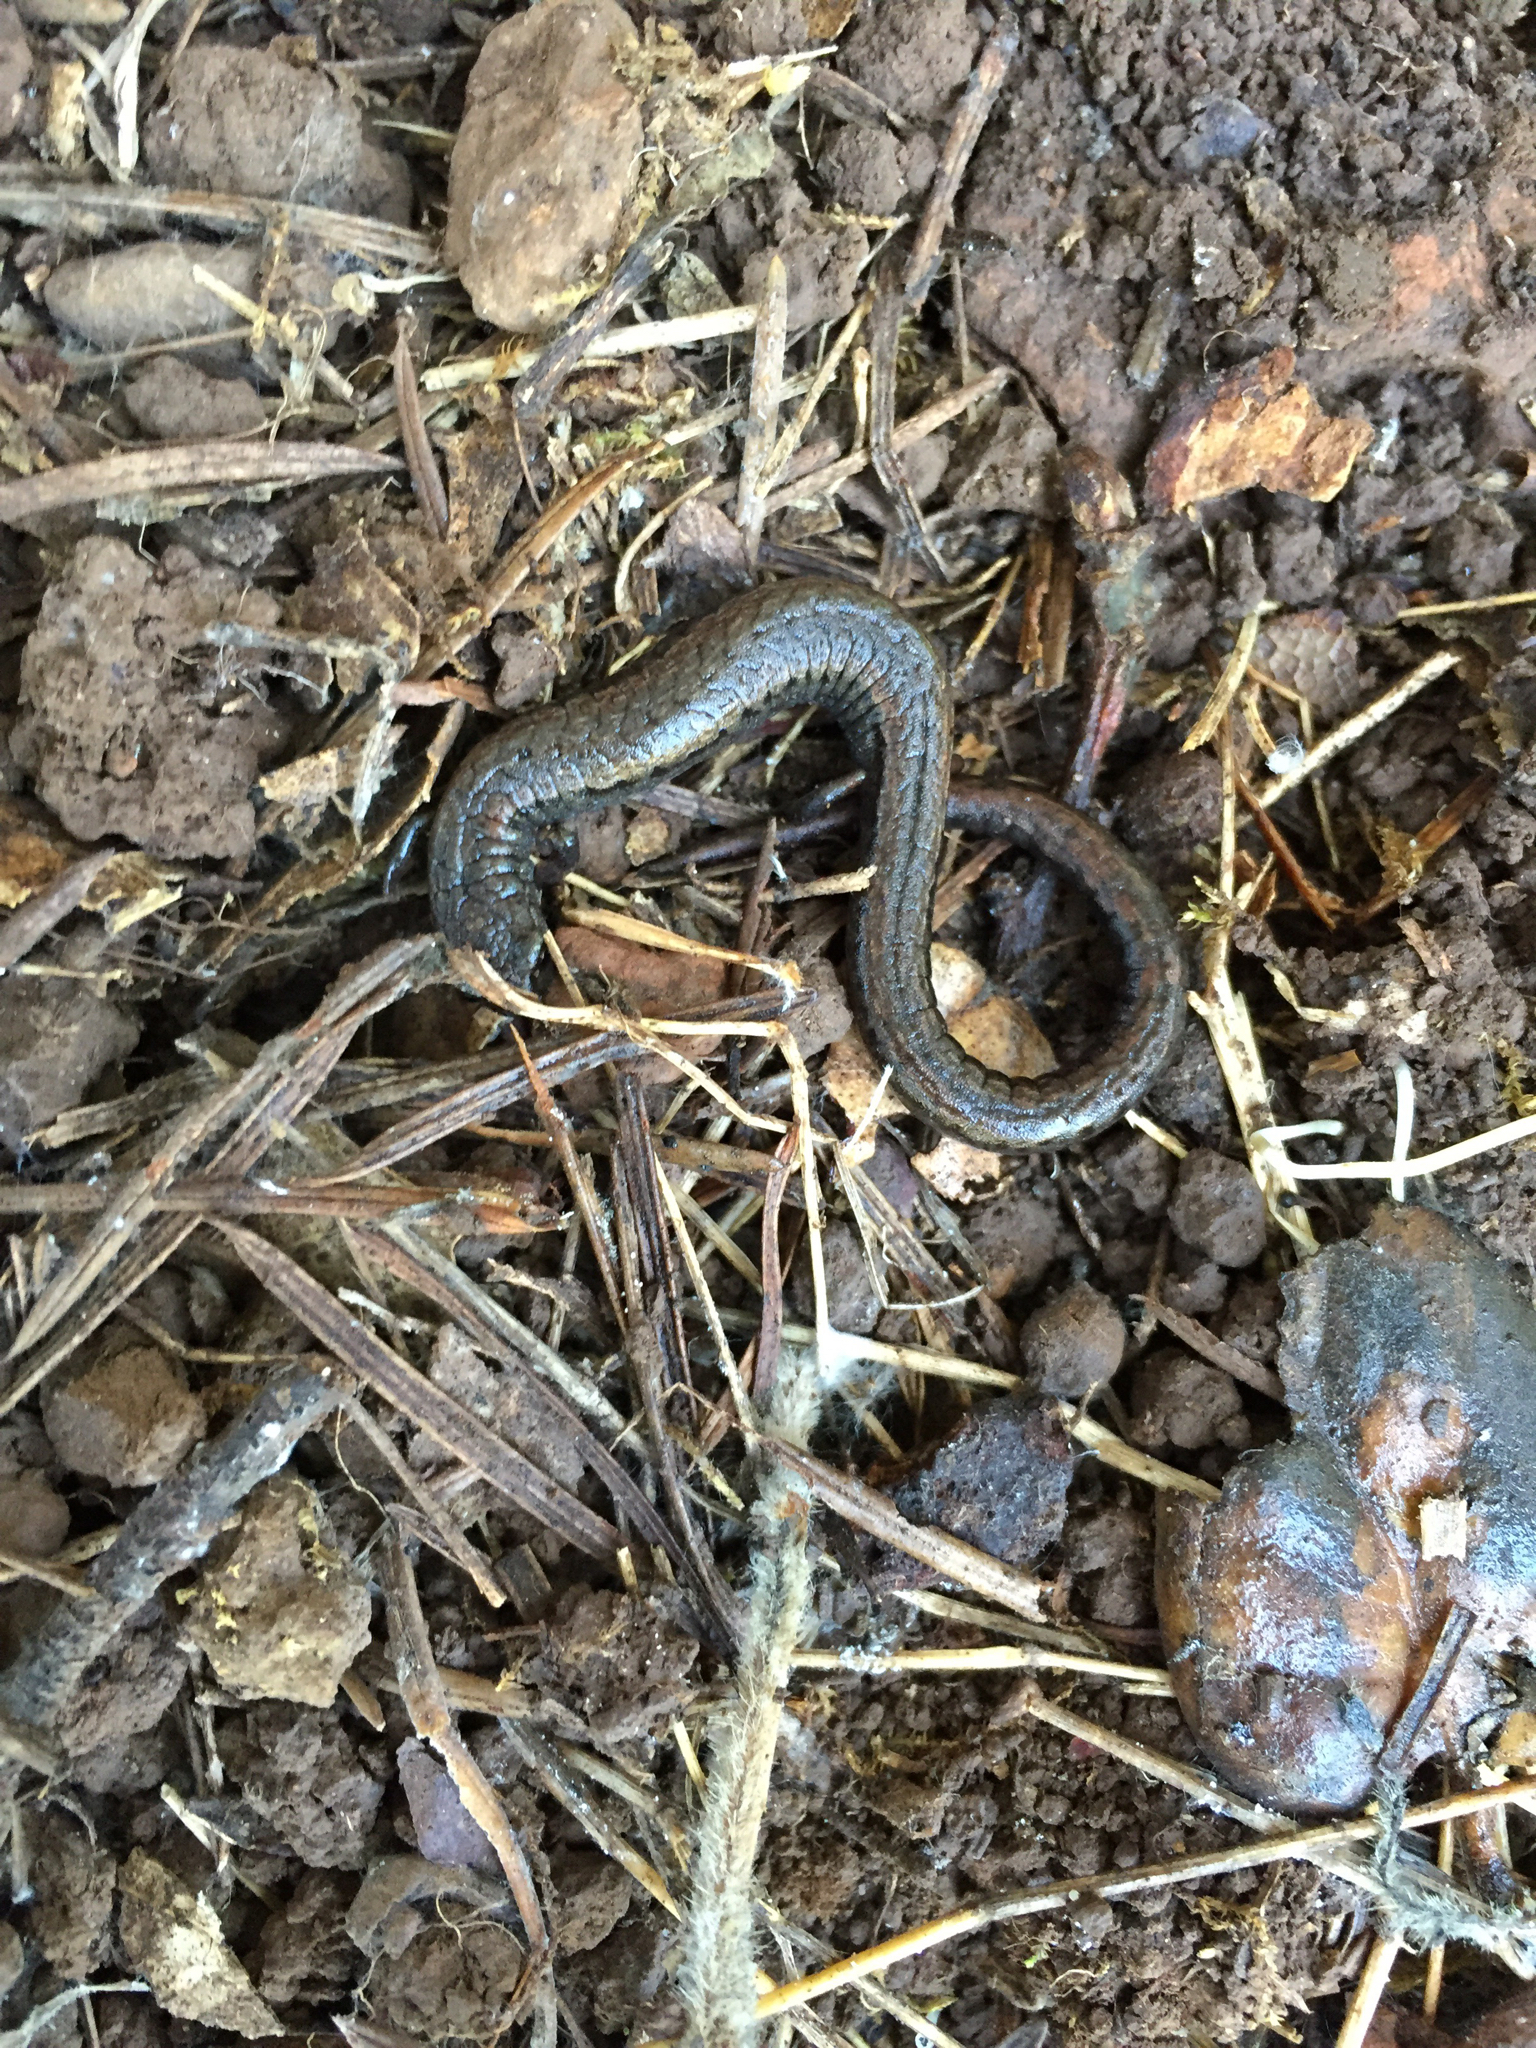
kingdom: Animalia
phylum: Chordata
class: Amphibia
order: Caudata
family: Plethodontidae
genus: Batrachoseps
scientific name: Batrachoseps attenuatus
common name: California slender salamander
